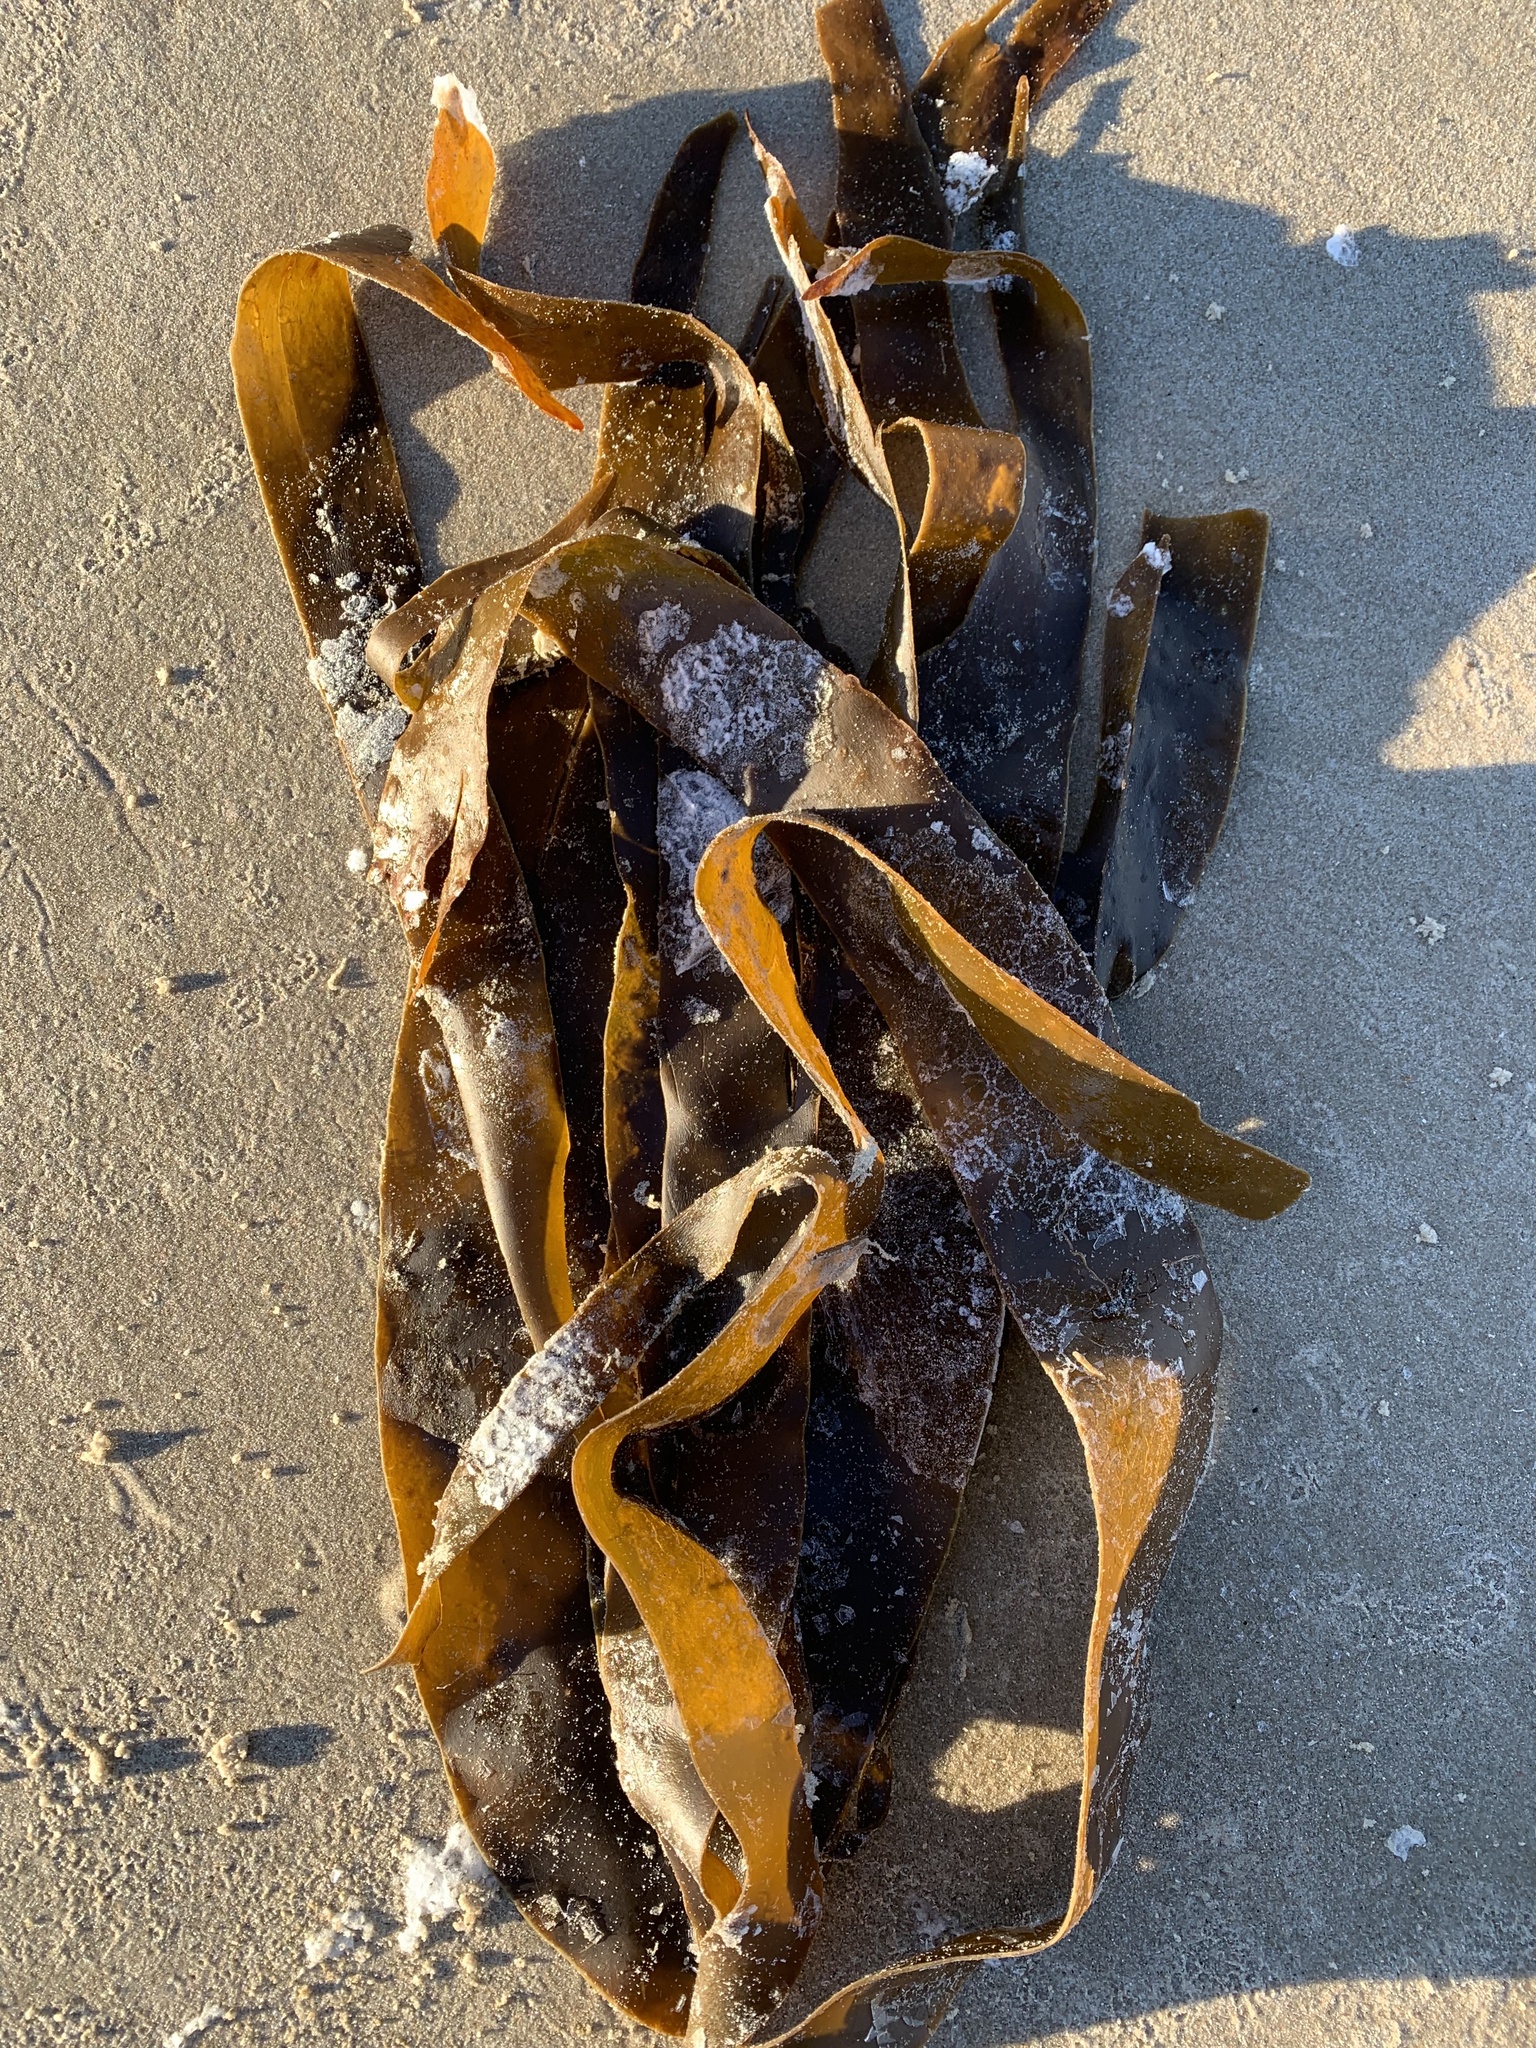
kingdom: Chromista
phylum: Ochrophyta
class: Phaeophyceae
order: Laminariales
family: Laminariaceae
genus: Laminaria
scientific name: Laminaria digitata
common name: Oarweed
